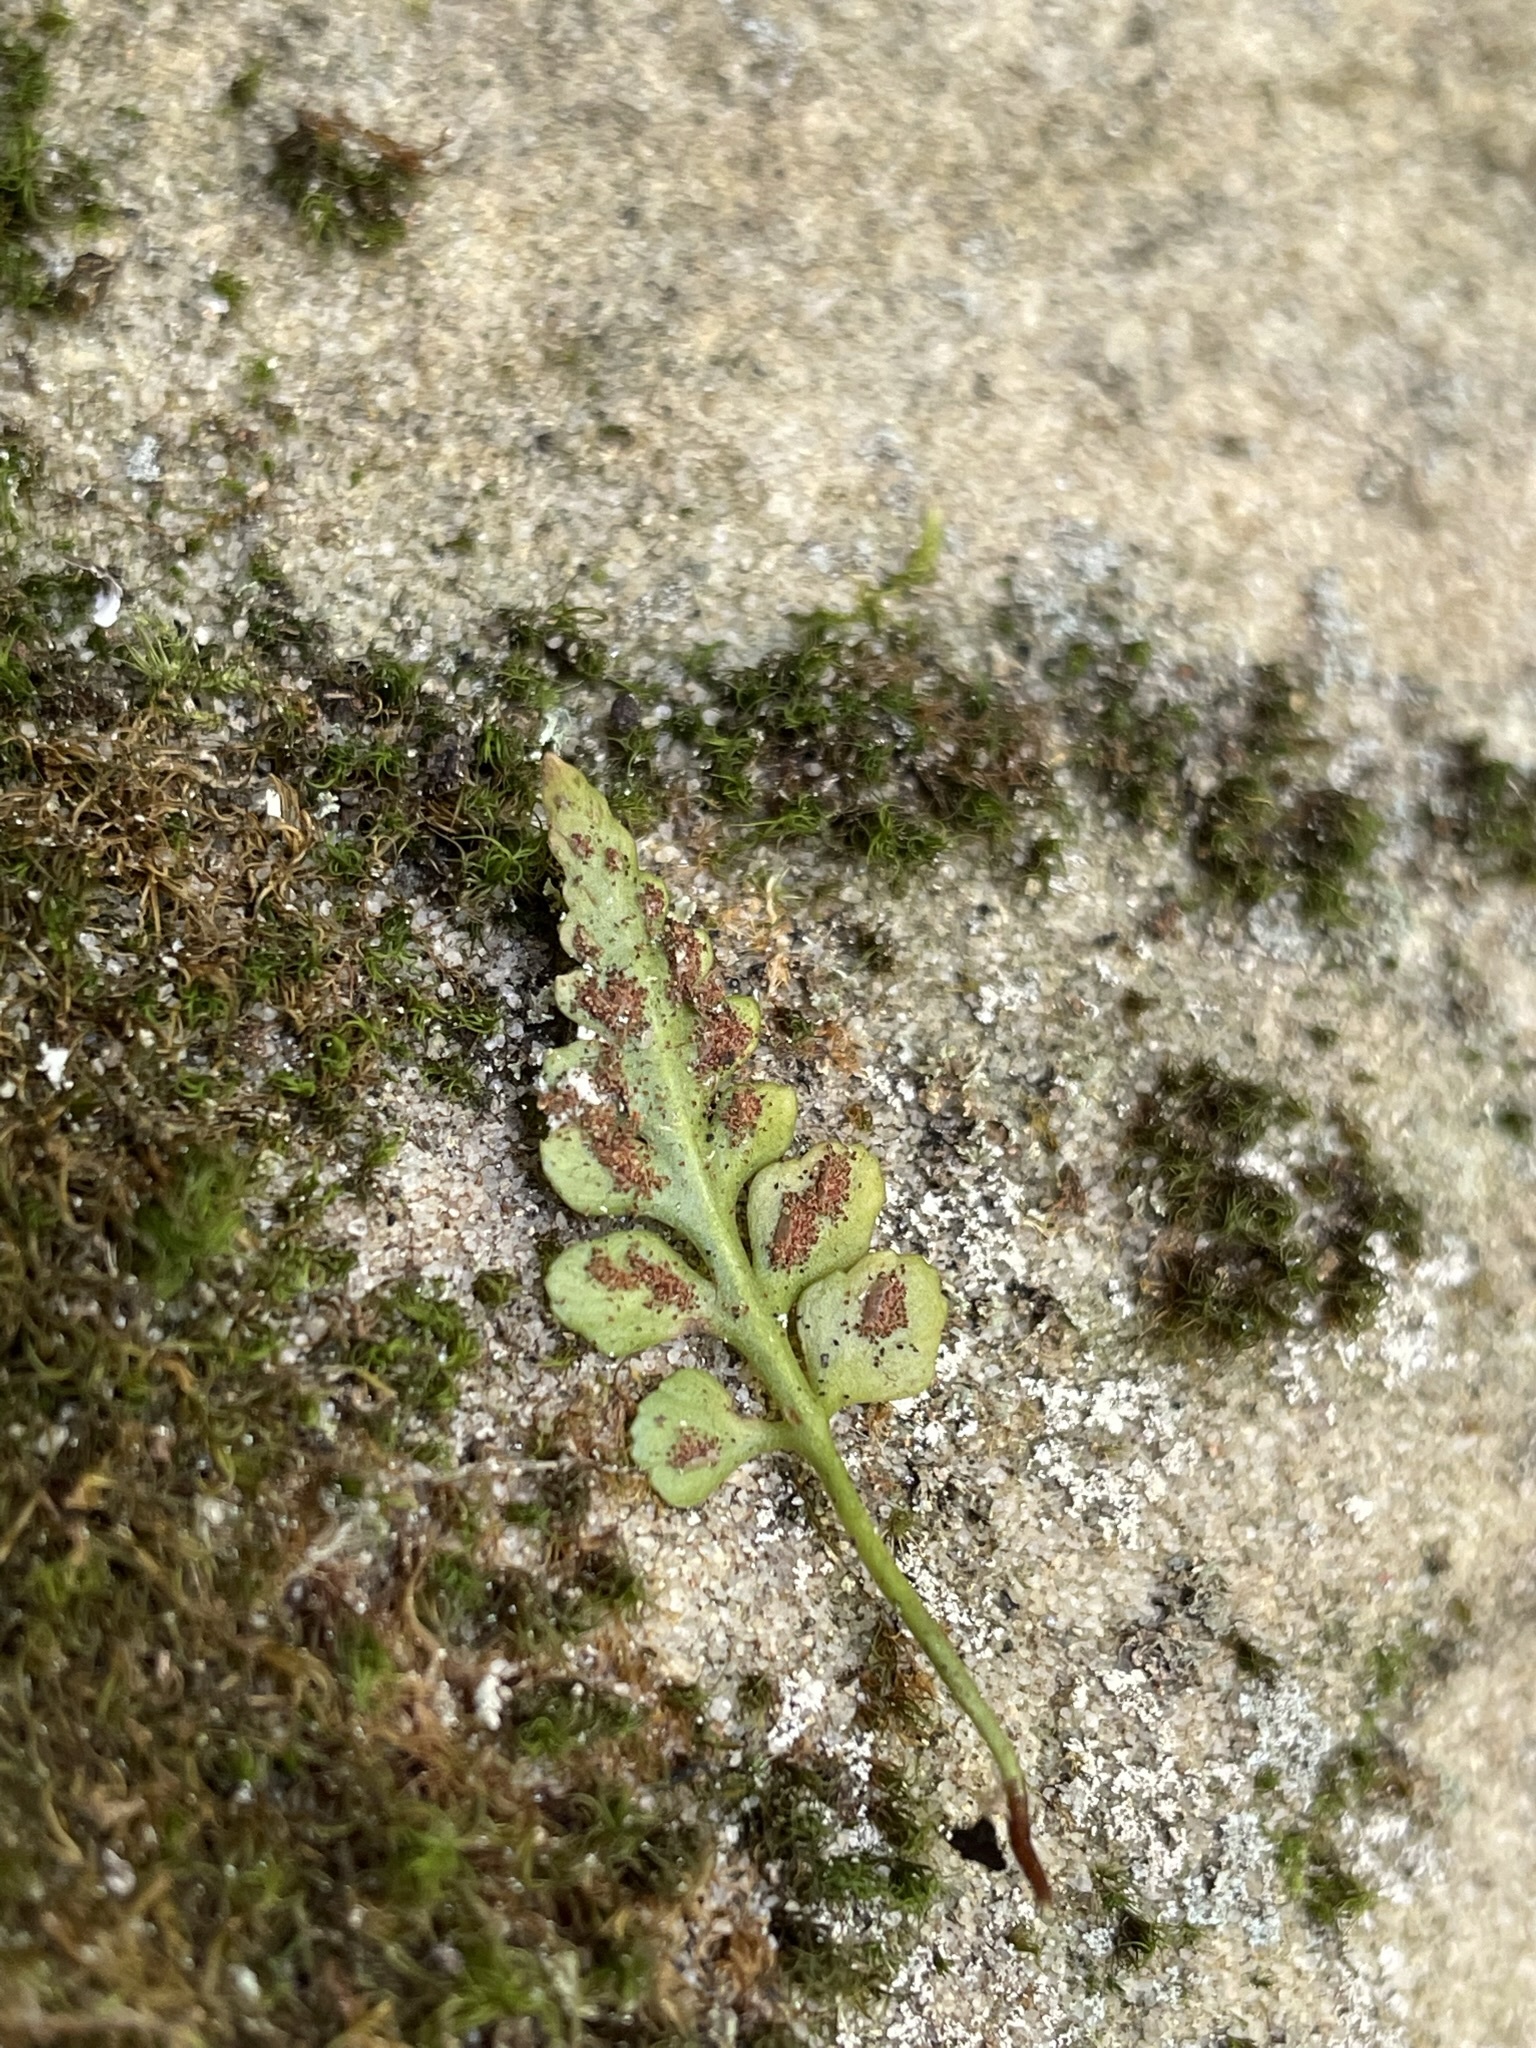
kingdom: Plantae
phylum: Tracheophyta
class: Polypodiopsida
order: Polypodiales
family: Aspleniaceae
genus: Asplenium
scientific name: Asplenium bradleyi
